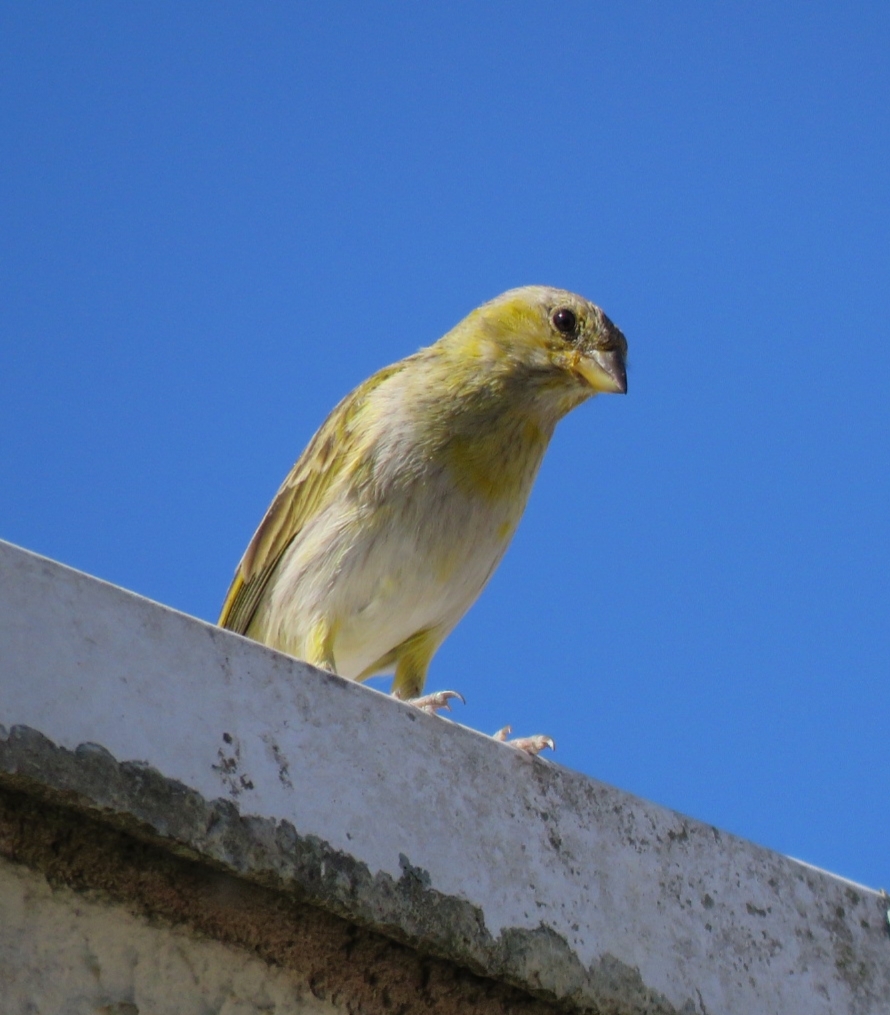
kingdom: Animalia
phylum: Chordata
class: Aves
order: Passeriformes
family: Thraupidae
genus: Sicalis
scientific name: Sicalis flaveola
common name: Saffron finch
